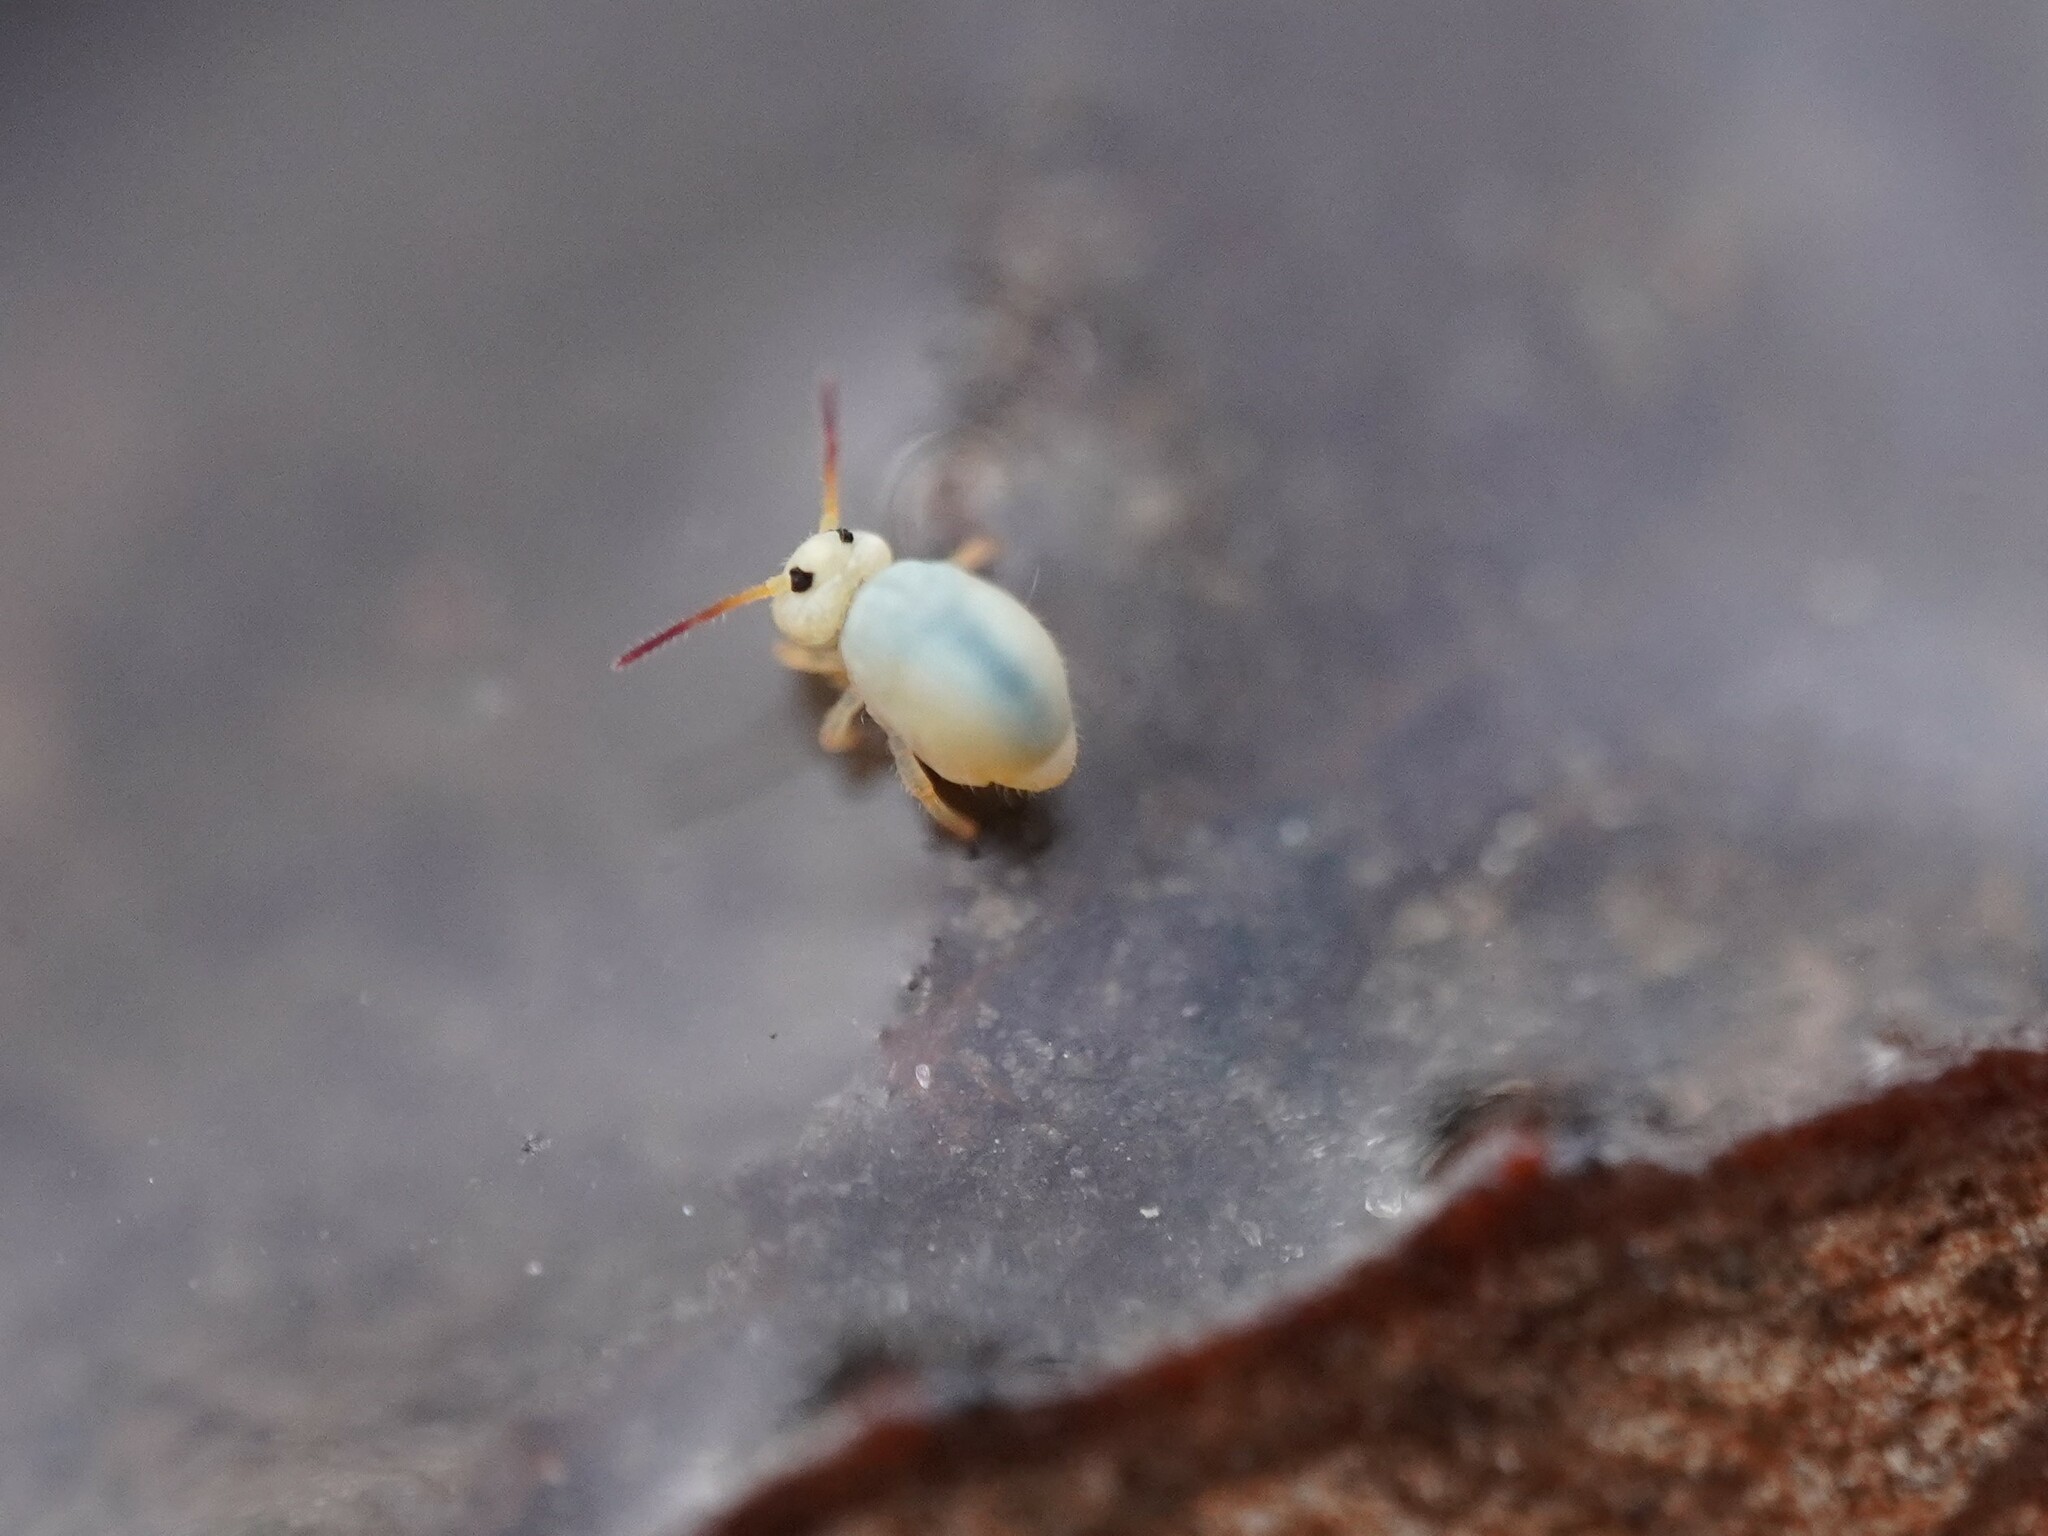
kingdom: Animalia
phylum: Arthropoda
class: Collembola
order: Symphypleona
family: Sminthurididae
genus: Sminthurides
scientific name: Sminthurides aquaticus
